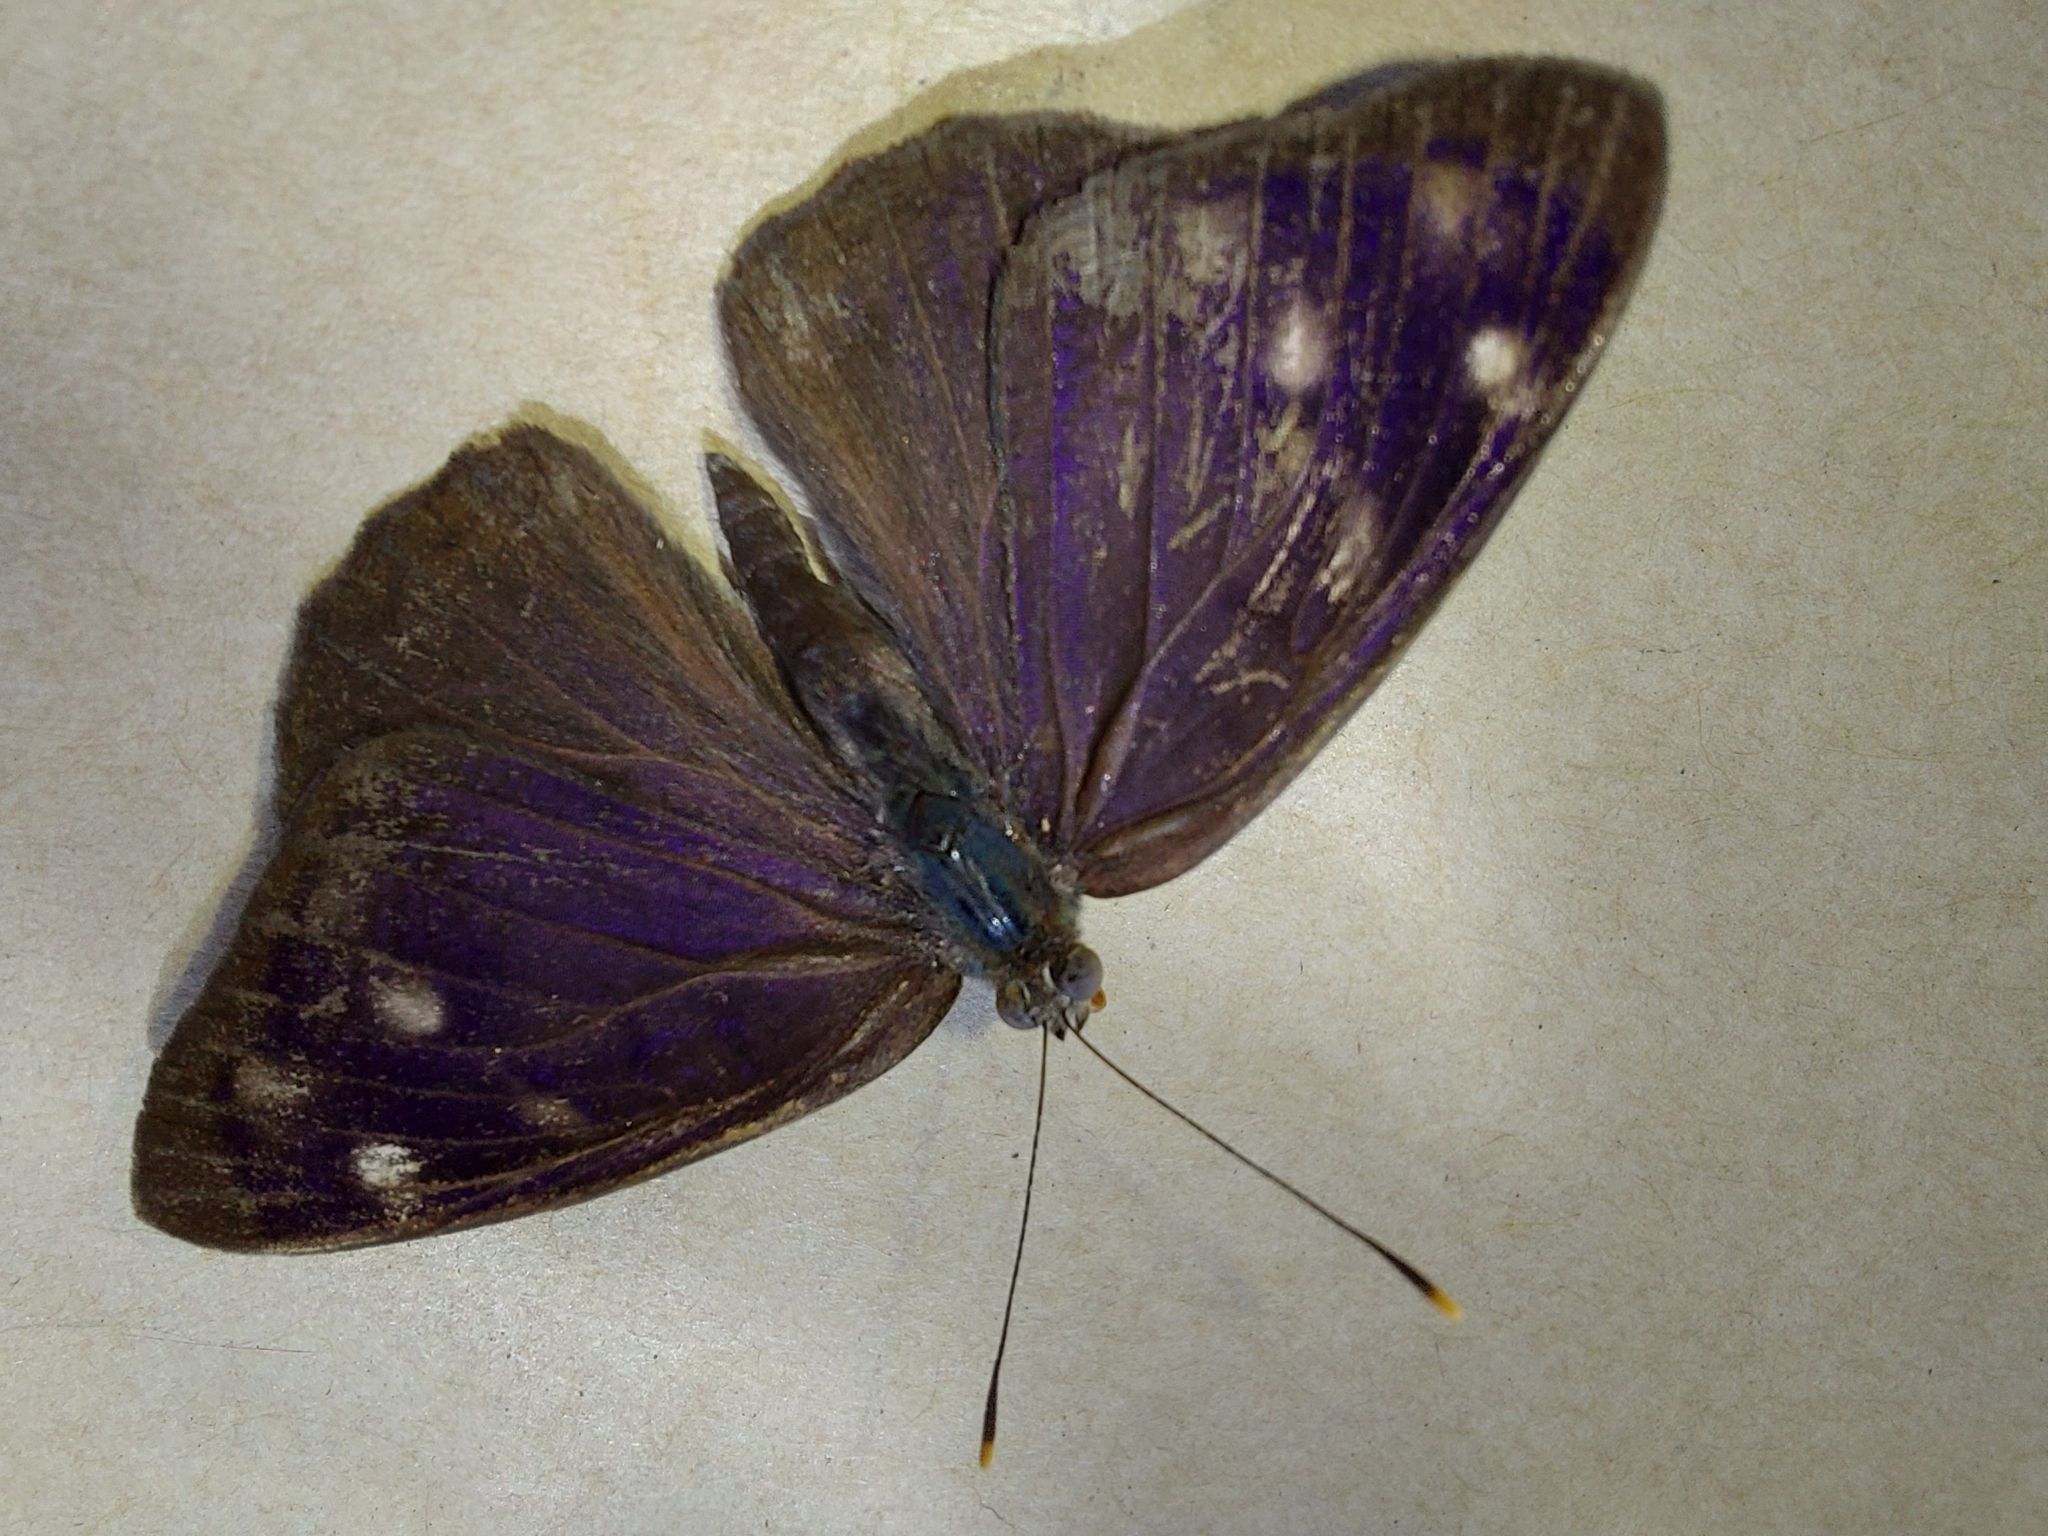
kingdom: Animalia
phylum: Arthropoda
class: Insecta
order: Lepidoptera
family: Nymphalidae
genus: Eunica
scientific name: Eunica monima
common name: Dingy purplewing
